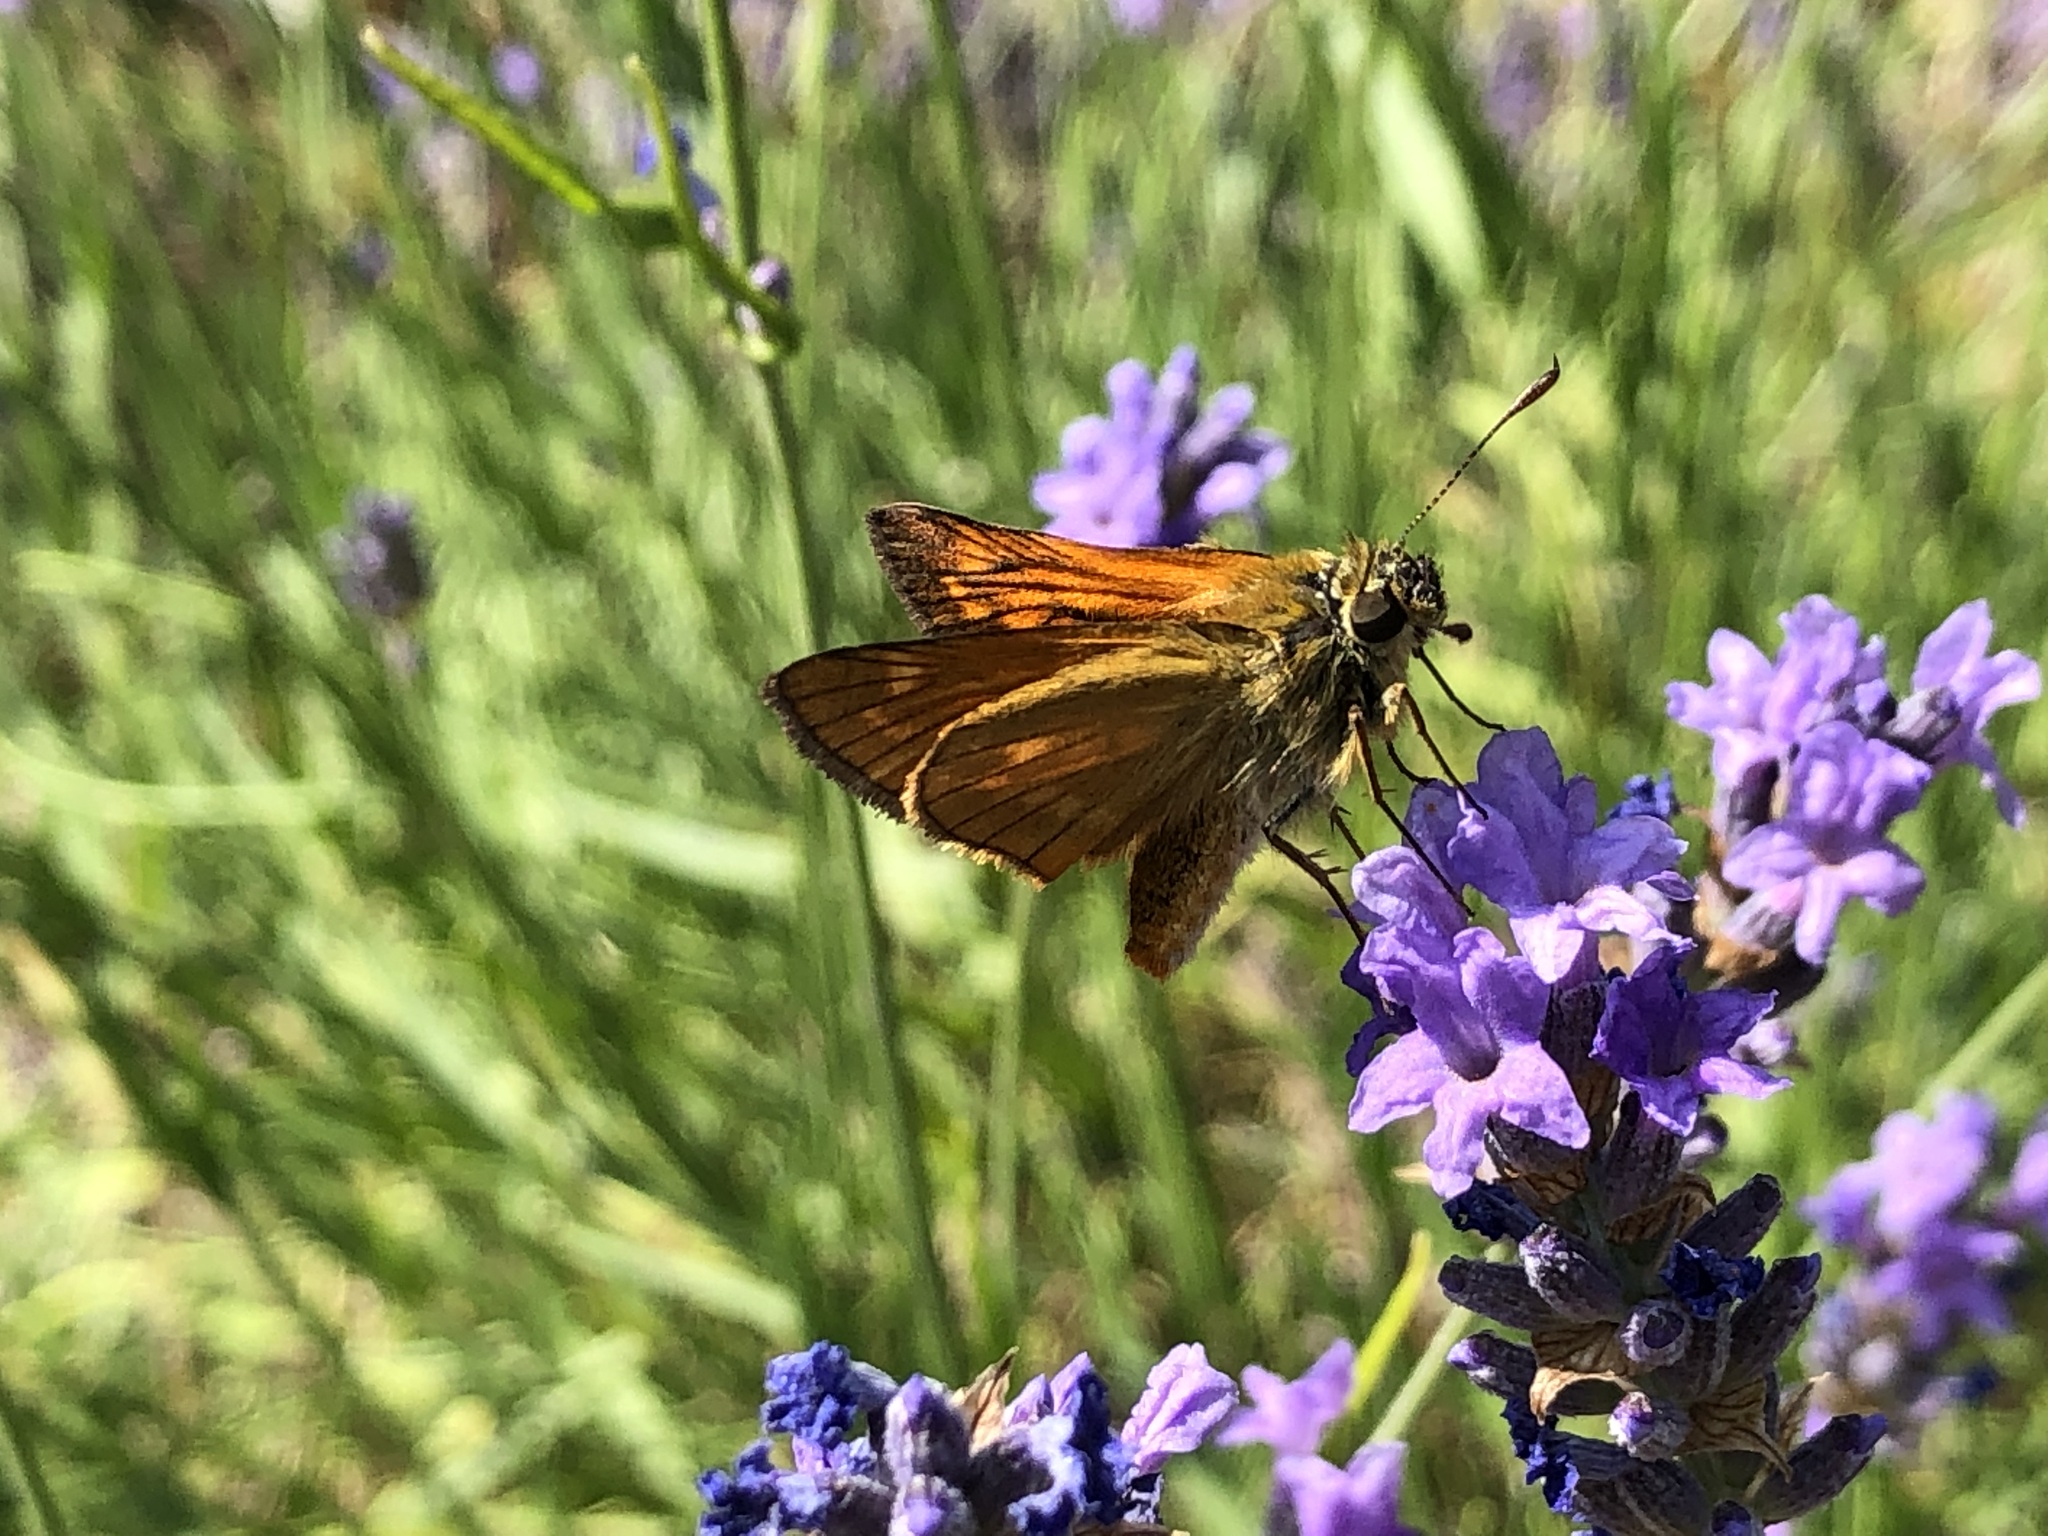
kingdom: Animalia
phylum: Arthropoda
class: Insecta
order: Lepidoptera
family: Hesperiidae
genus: Ochlodes
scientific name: Ochlodes venata
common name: Large skipper
